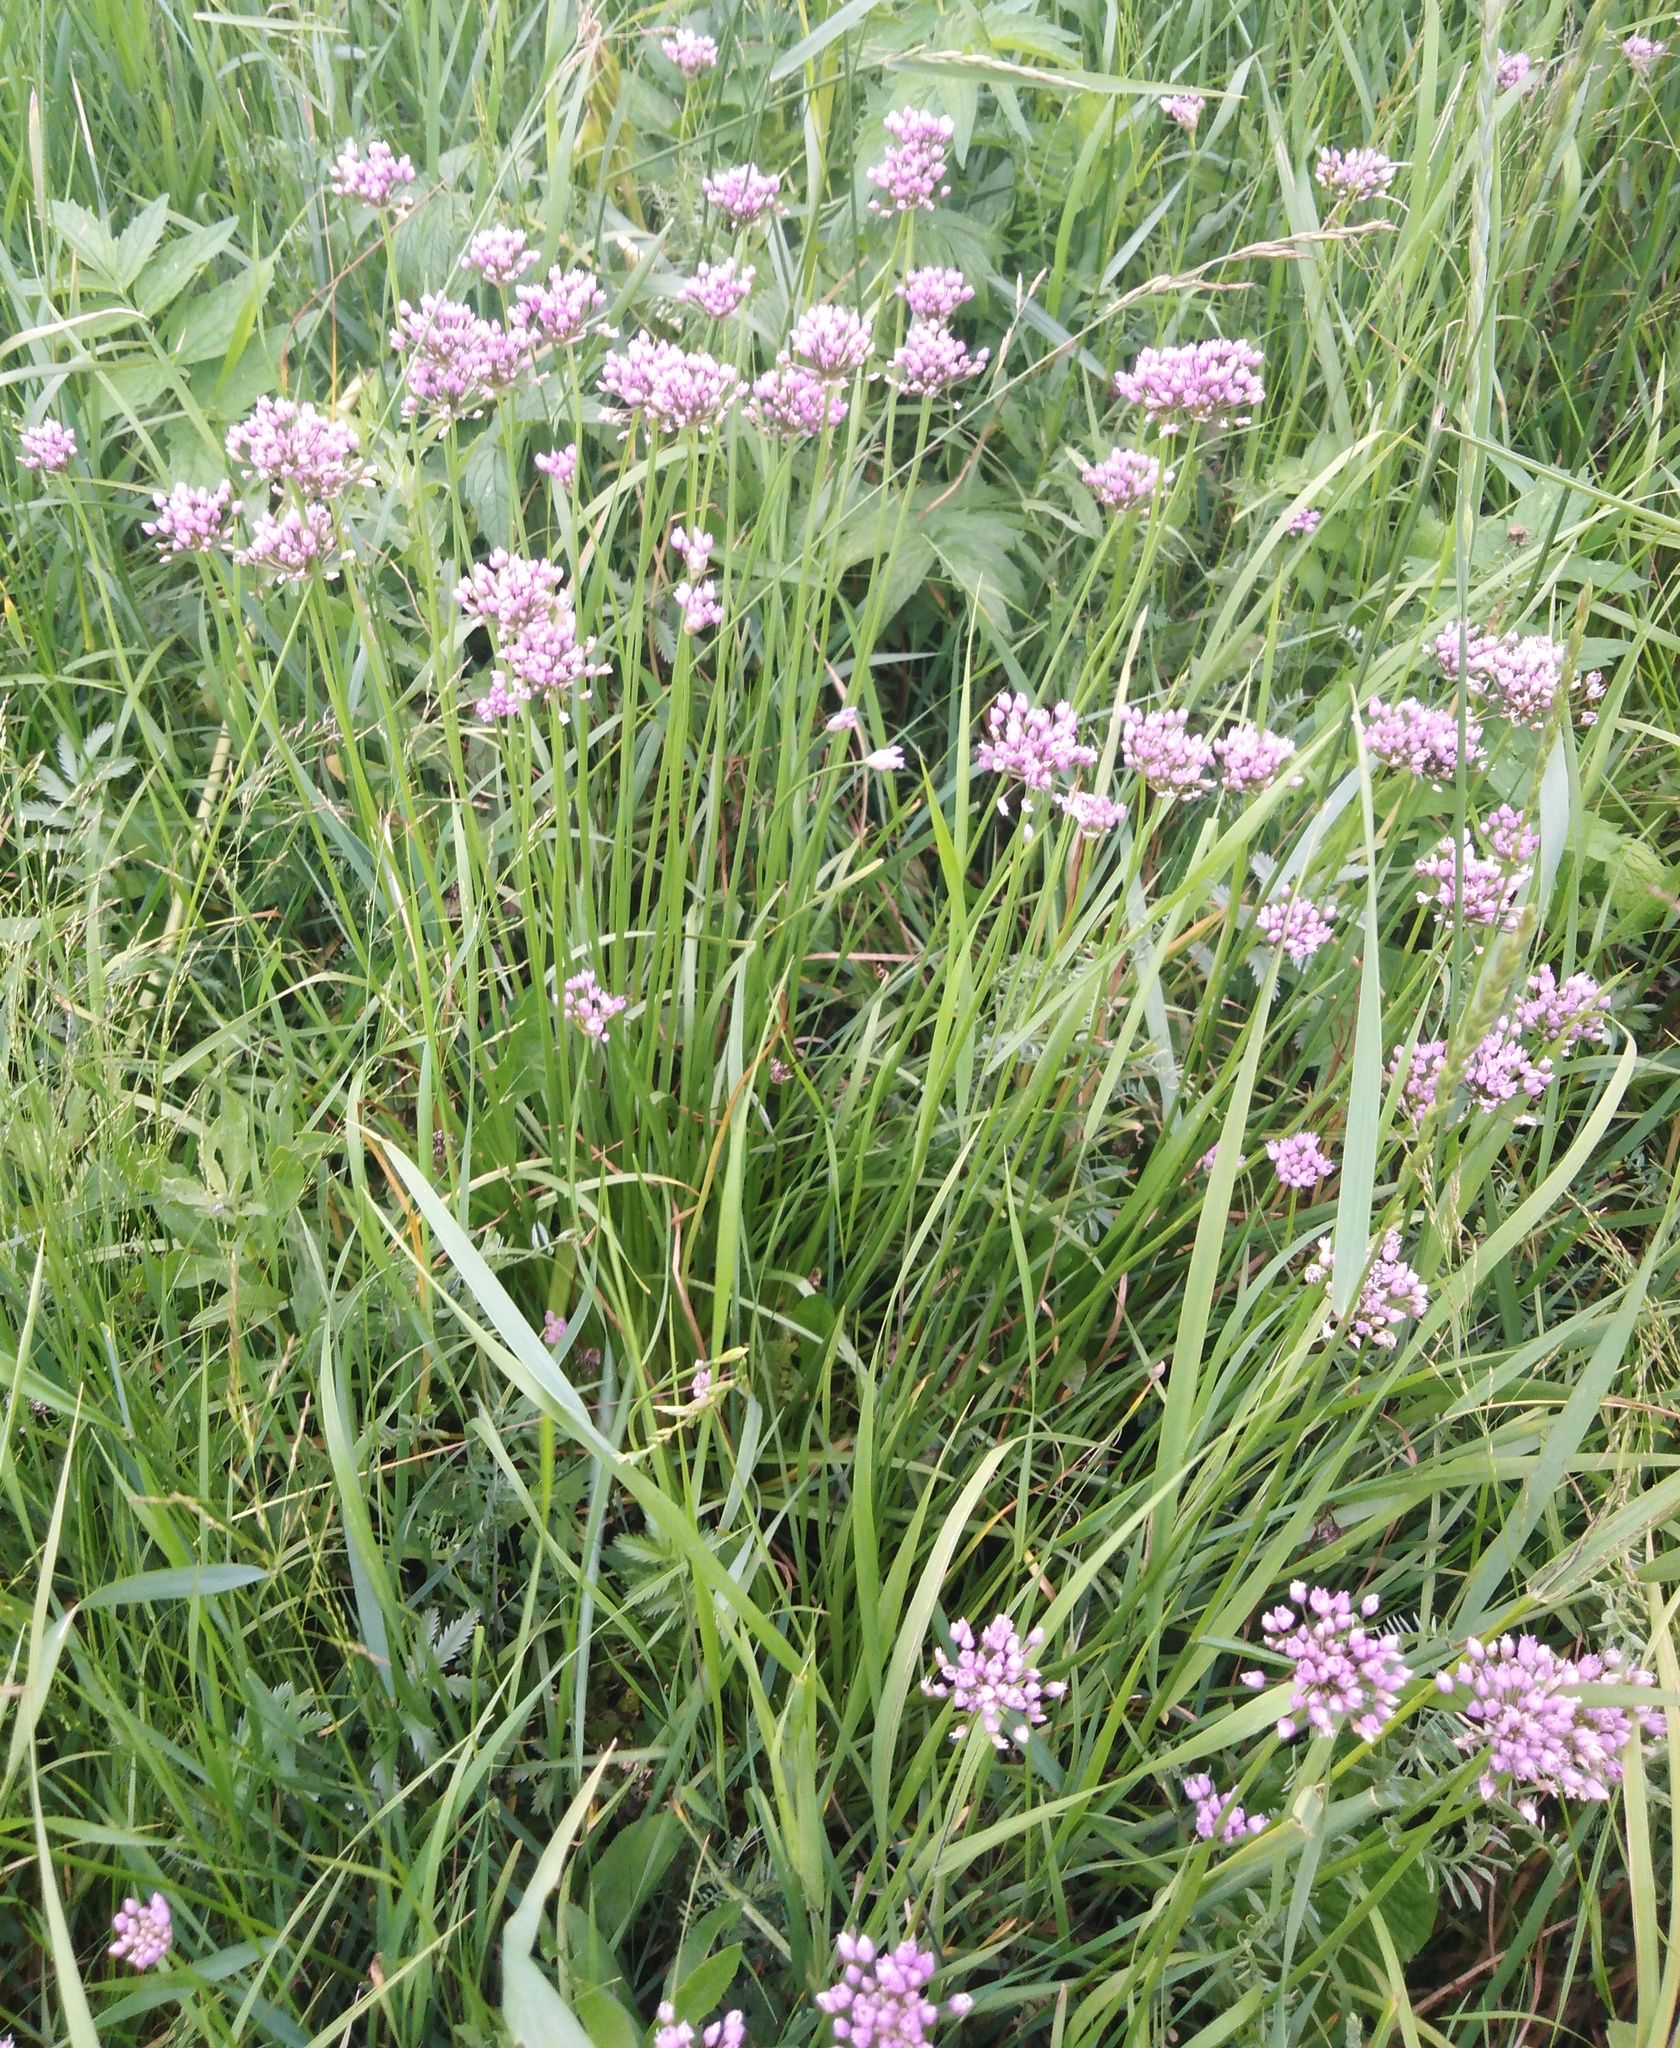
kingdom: Plantae
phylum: Tracheophyta
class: Liliopsida
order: Asparagales
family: Amaryllidaceae
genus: Allium
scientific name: Allium angulosum
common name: Mouse garlic
